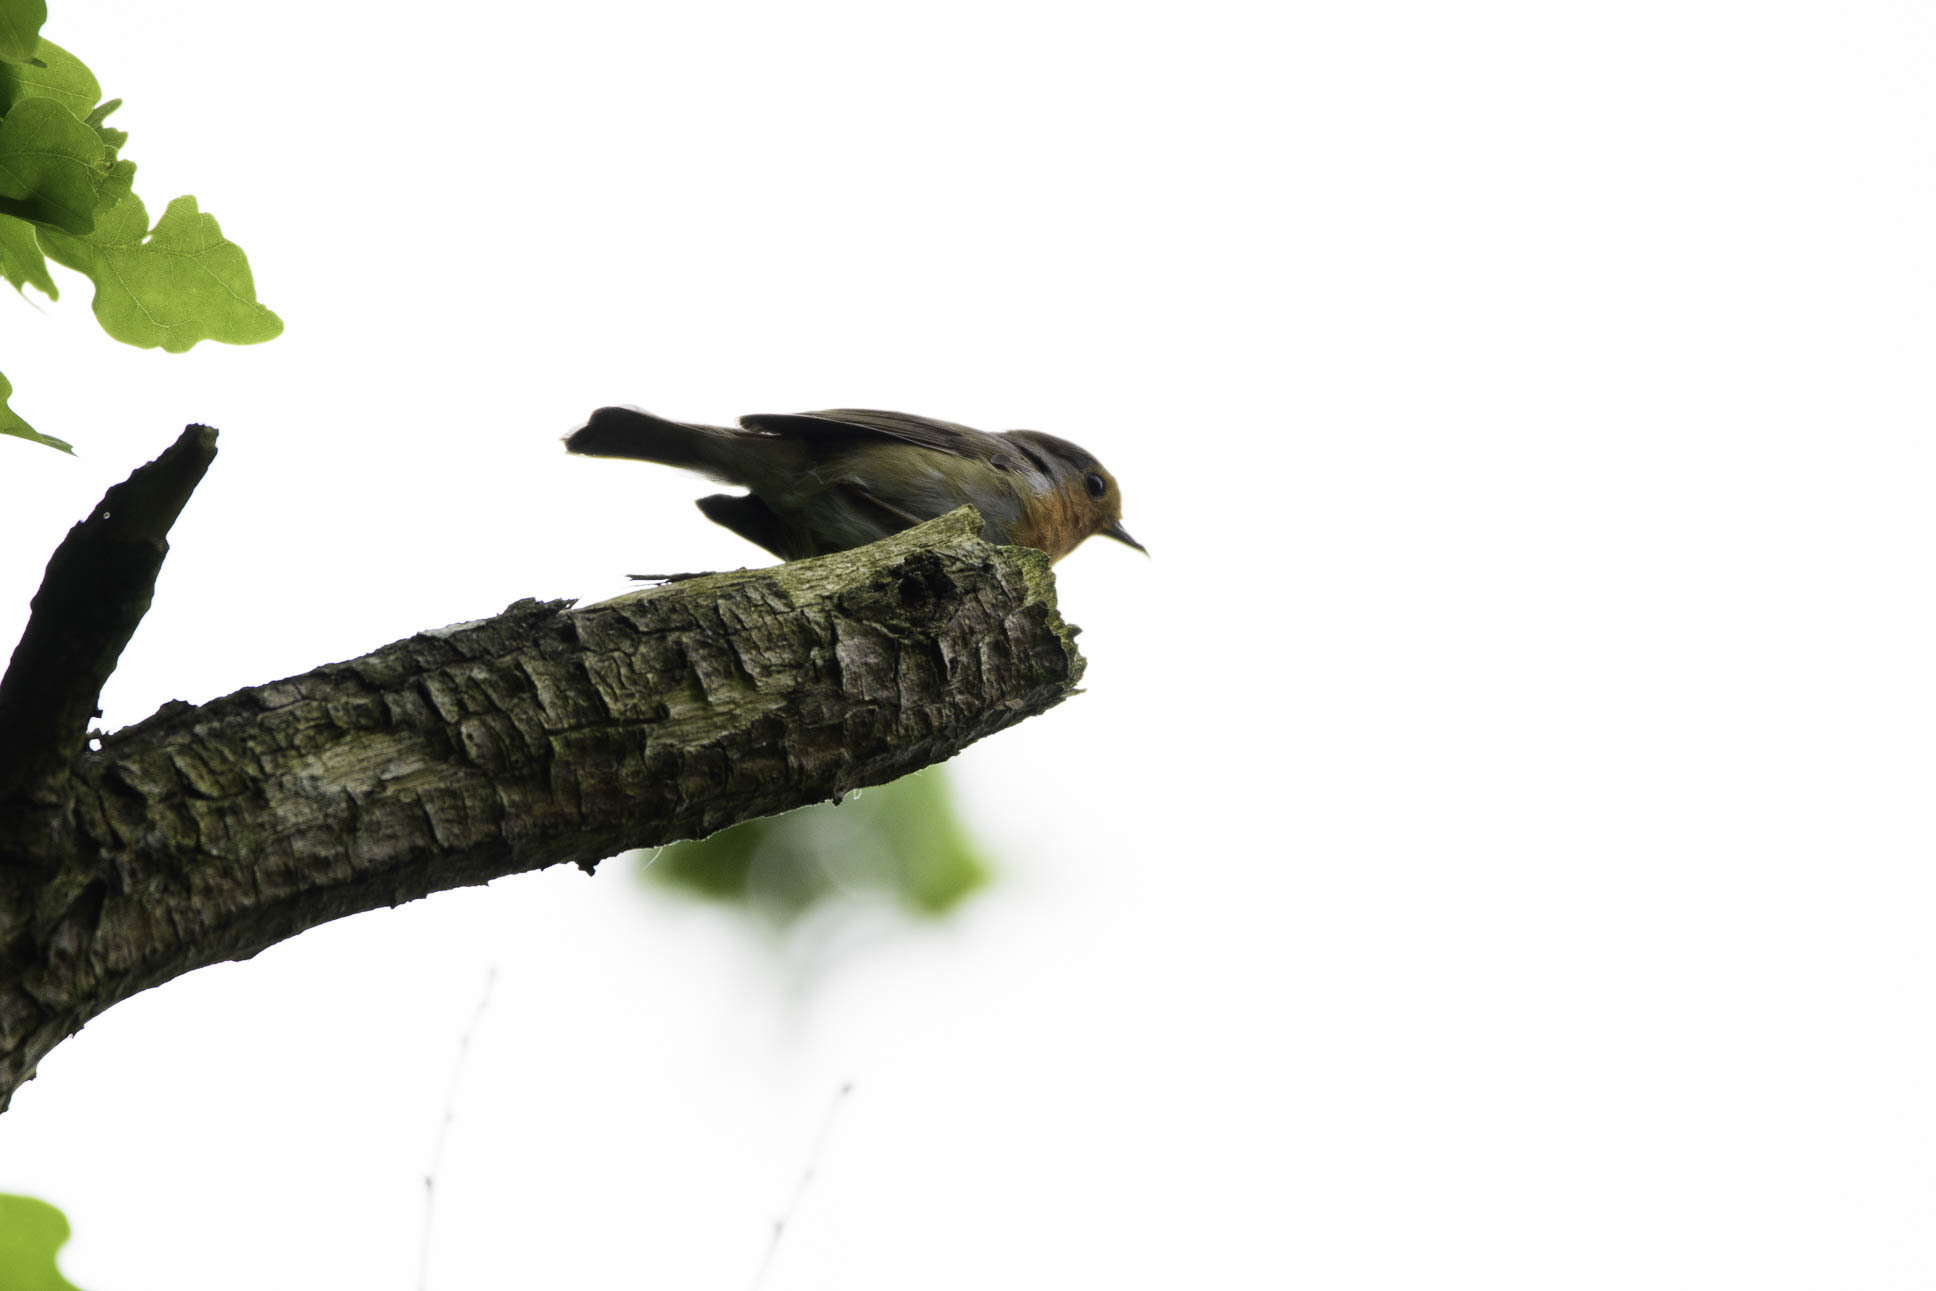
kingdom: Animalia
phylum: Chordata
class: Aves
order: Passeriformes
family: Muscicapidae
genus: Erithacus
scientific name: Erithacus rubecula
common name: European robin
